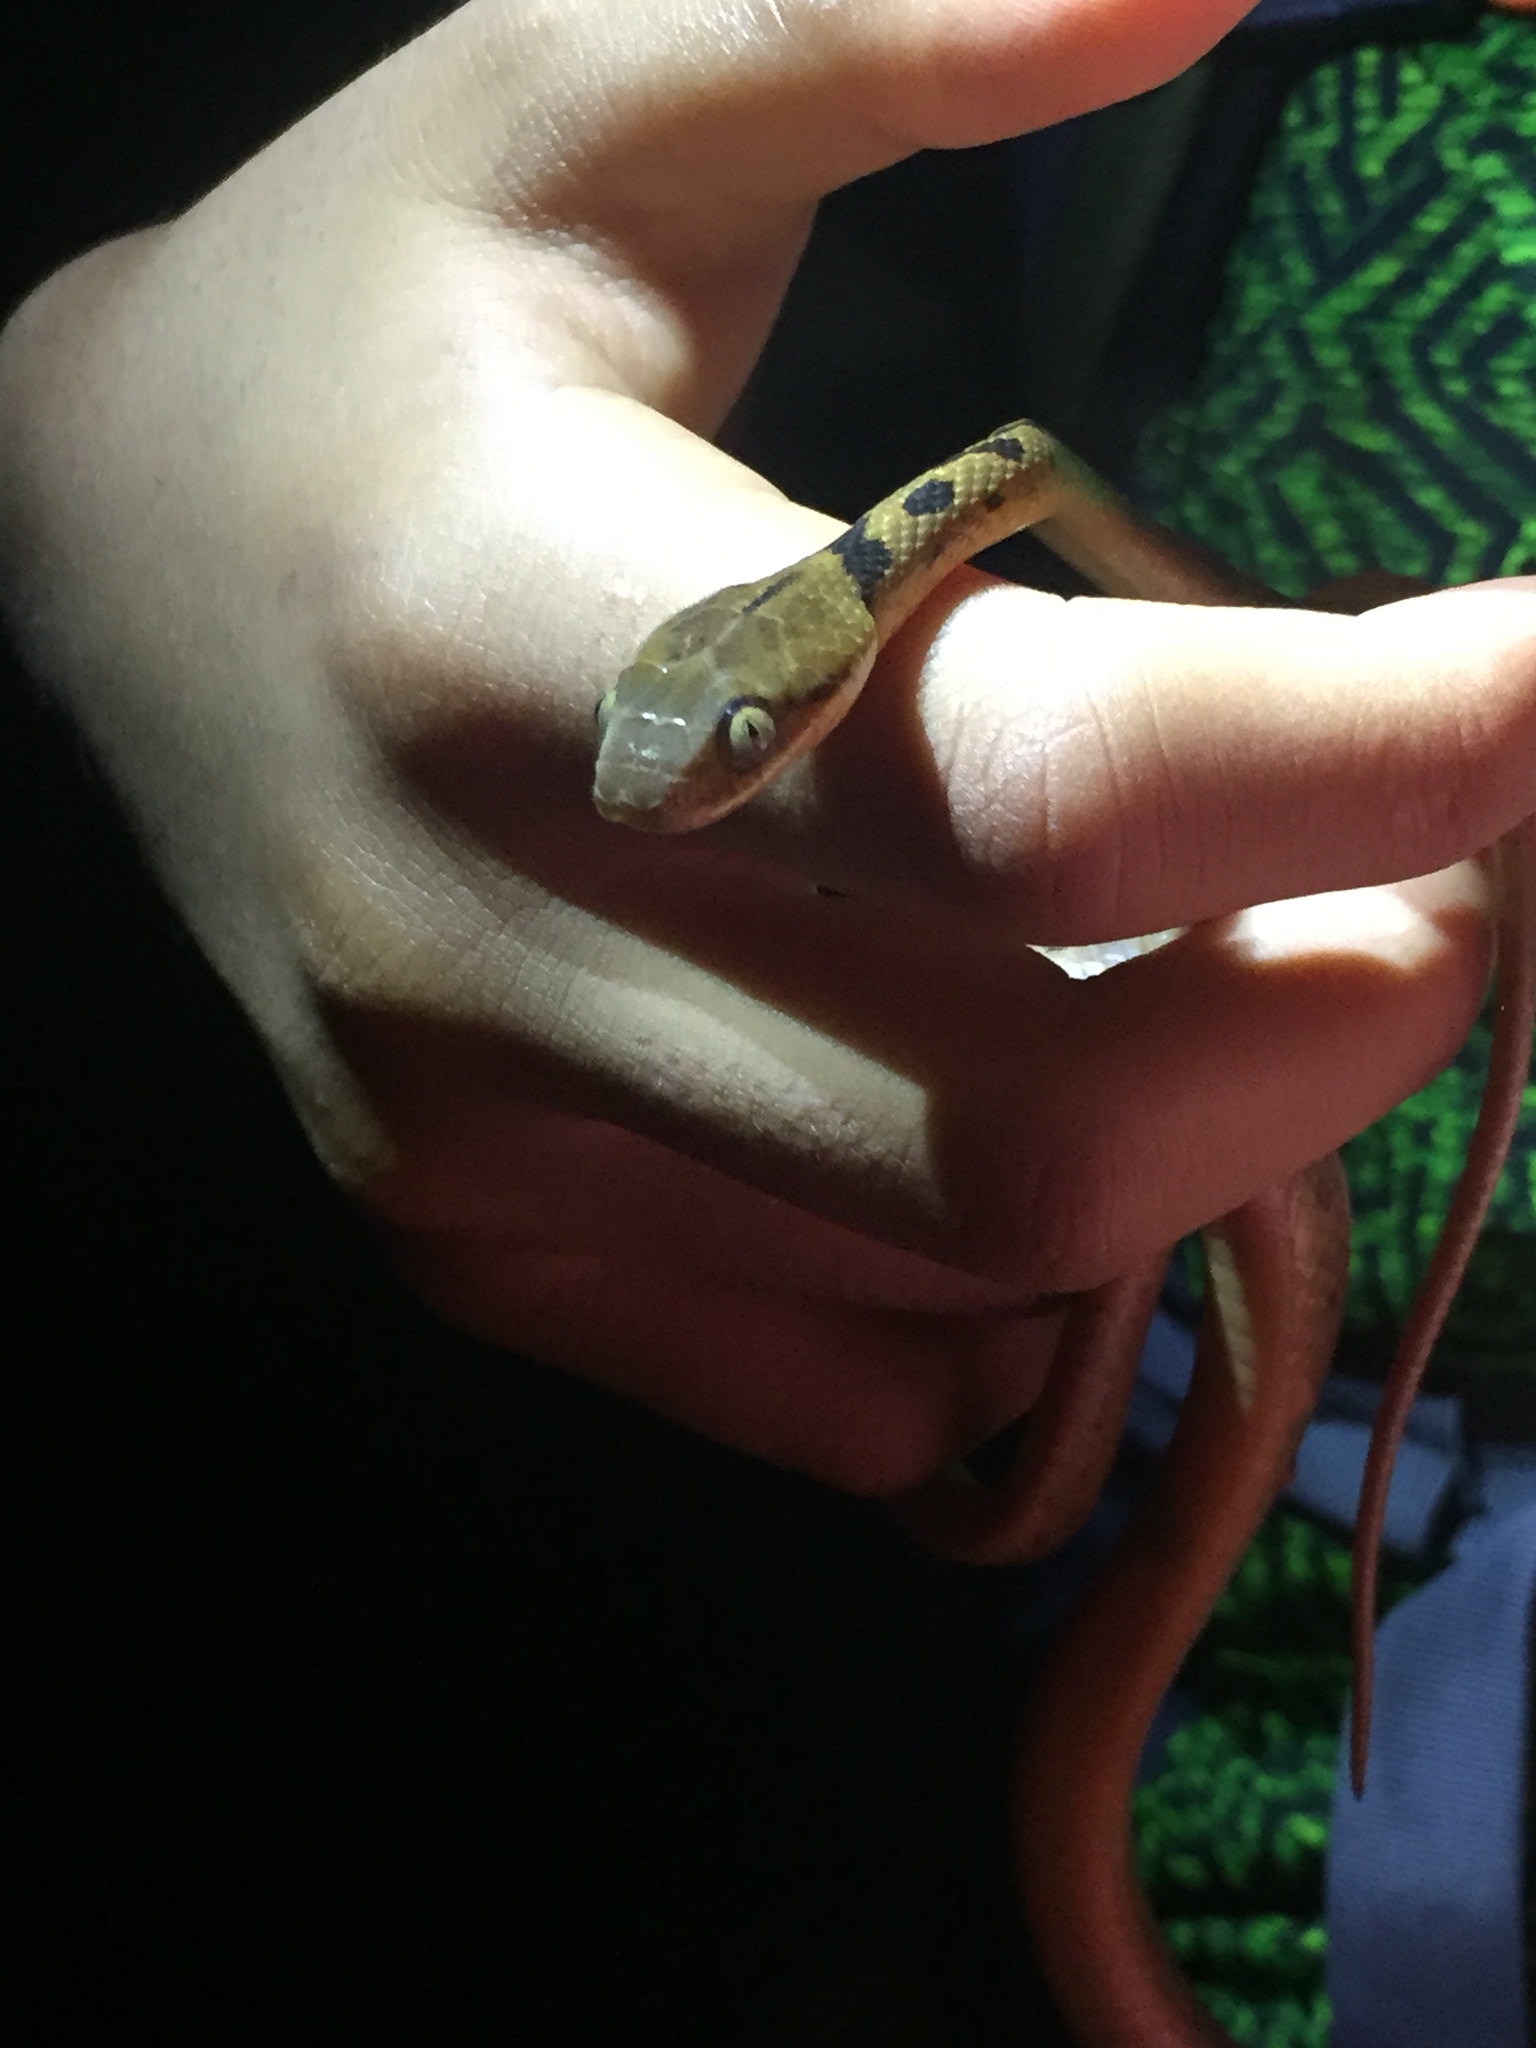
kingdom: Animalia
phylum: Chordata
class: Squamata
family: Colubridae
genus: Leptodeira
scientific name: Leptodeira septentrionalis
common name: Northern cat-eyed snake
